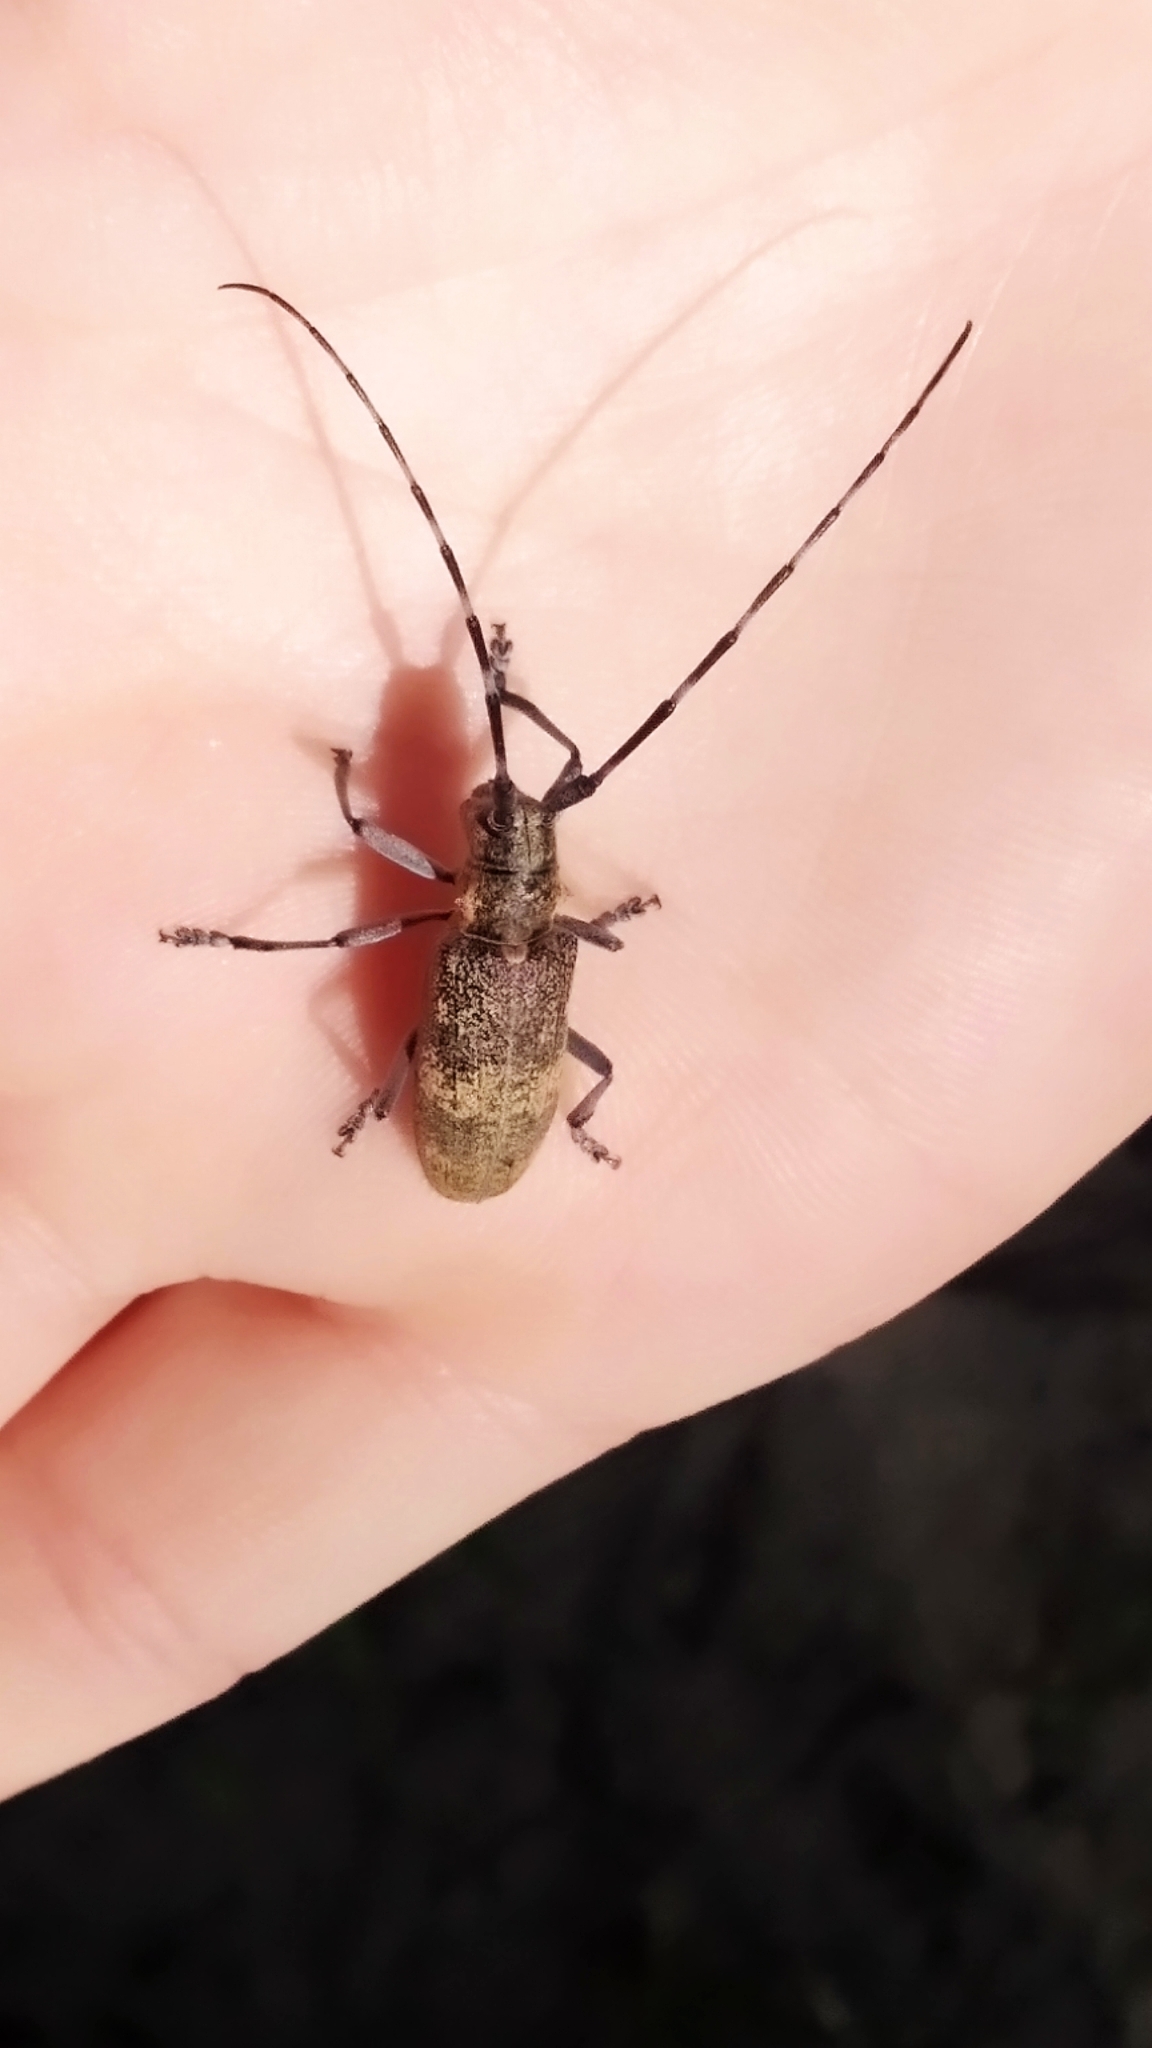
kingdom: Animalia
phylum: Arthropoda
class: Insecta
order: Coleoptera
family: Cerambycidae
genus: Monochamus
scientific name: Monochamus galloprovincialis
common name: Pine sawyer
